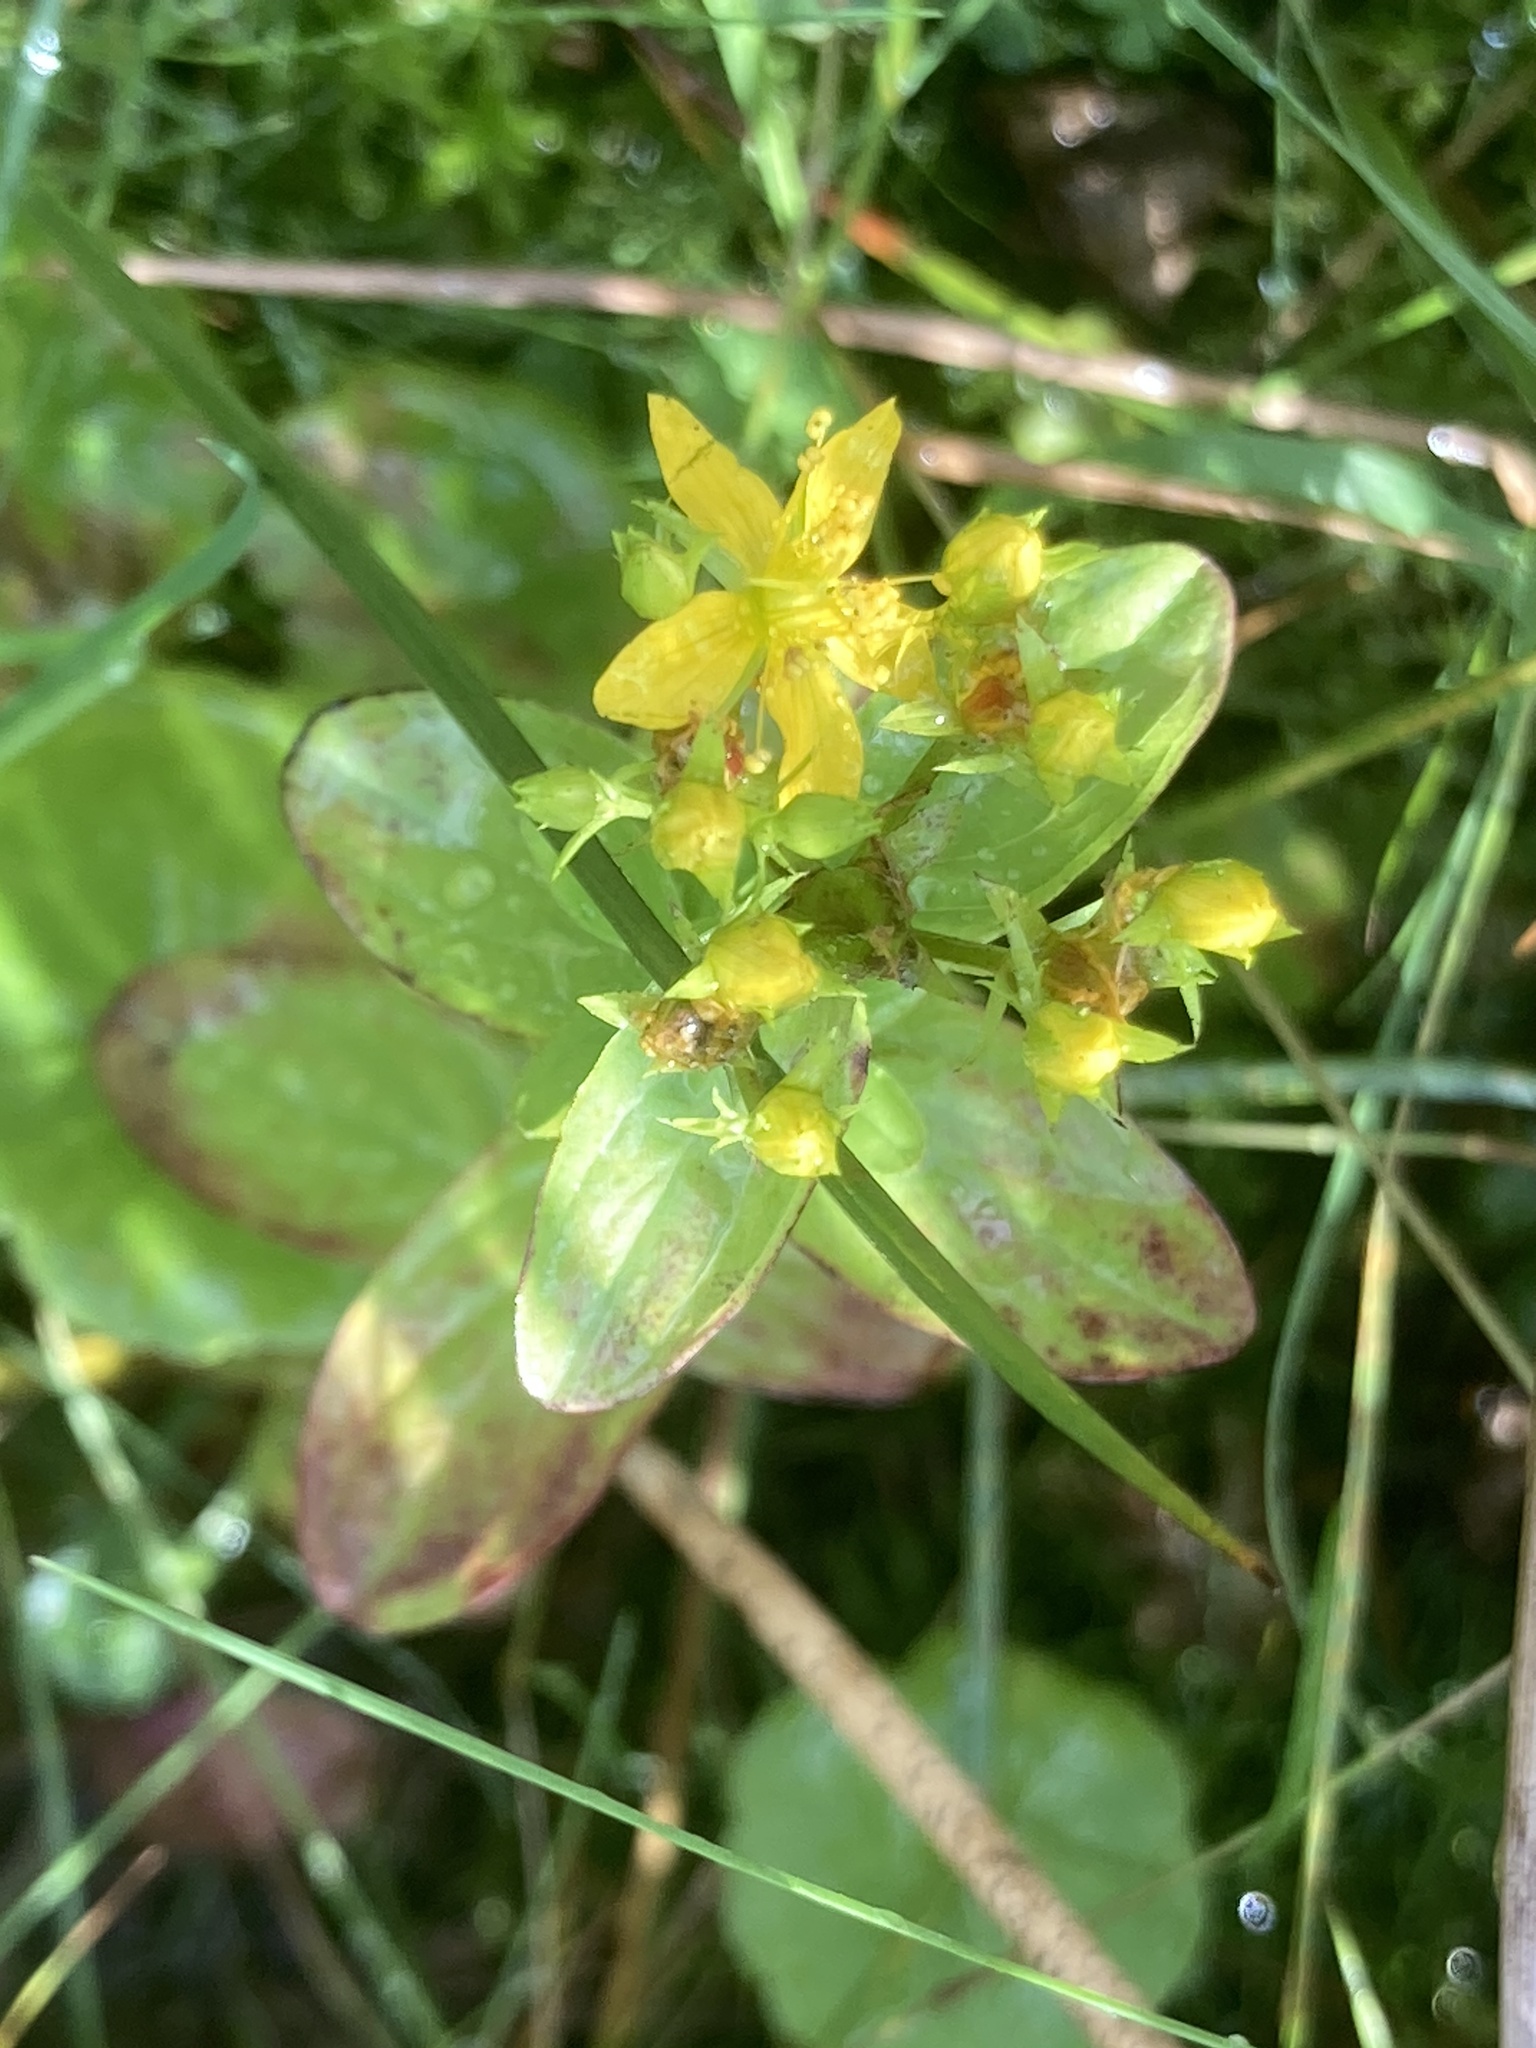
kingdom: Plantae
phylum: Tracheophyta
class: Magnoliopsida
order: Malpighiales
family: Hypericaceae
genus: Hypericum
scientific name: Hypericum tetrapterum
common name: Square-stalked st. john's-wort
